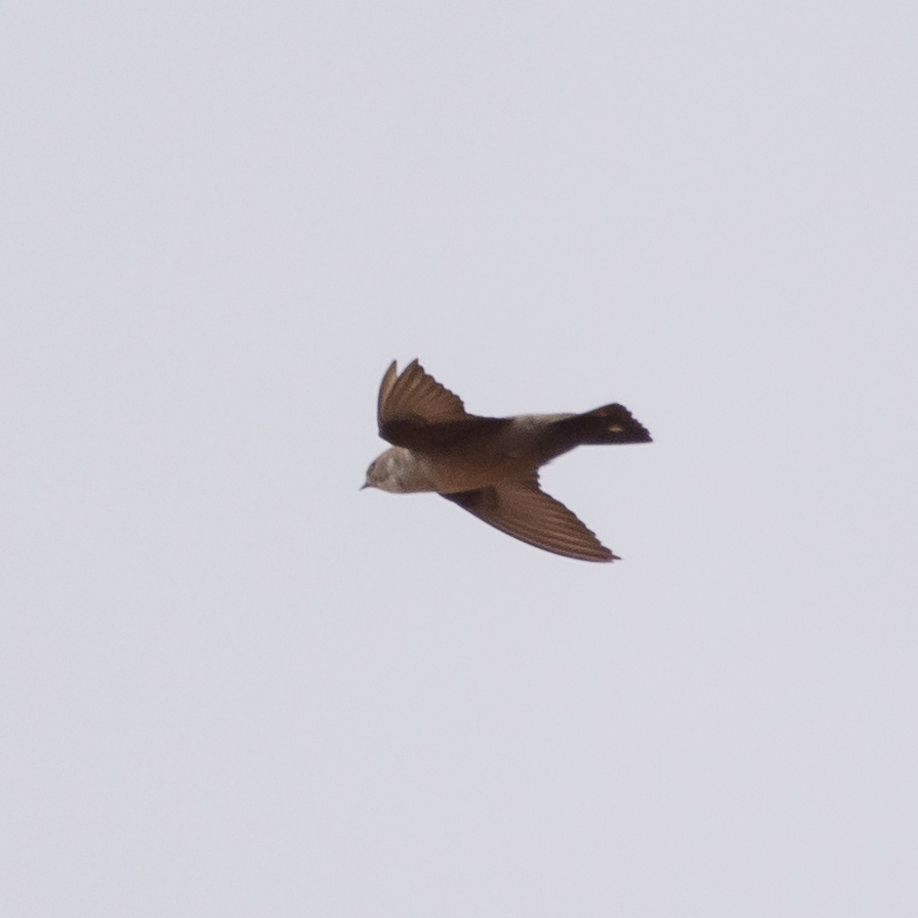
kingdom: Animalia
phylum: Chordata
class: Aves
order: Passeriformes
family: Hirundinidae
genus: Ptyonoprogne
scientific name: Ptyonoprogne rupestris
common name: Eurasian crag martin
